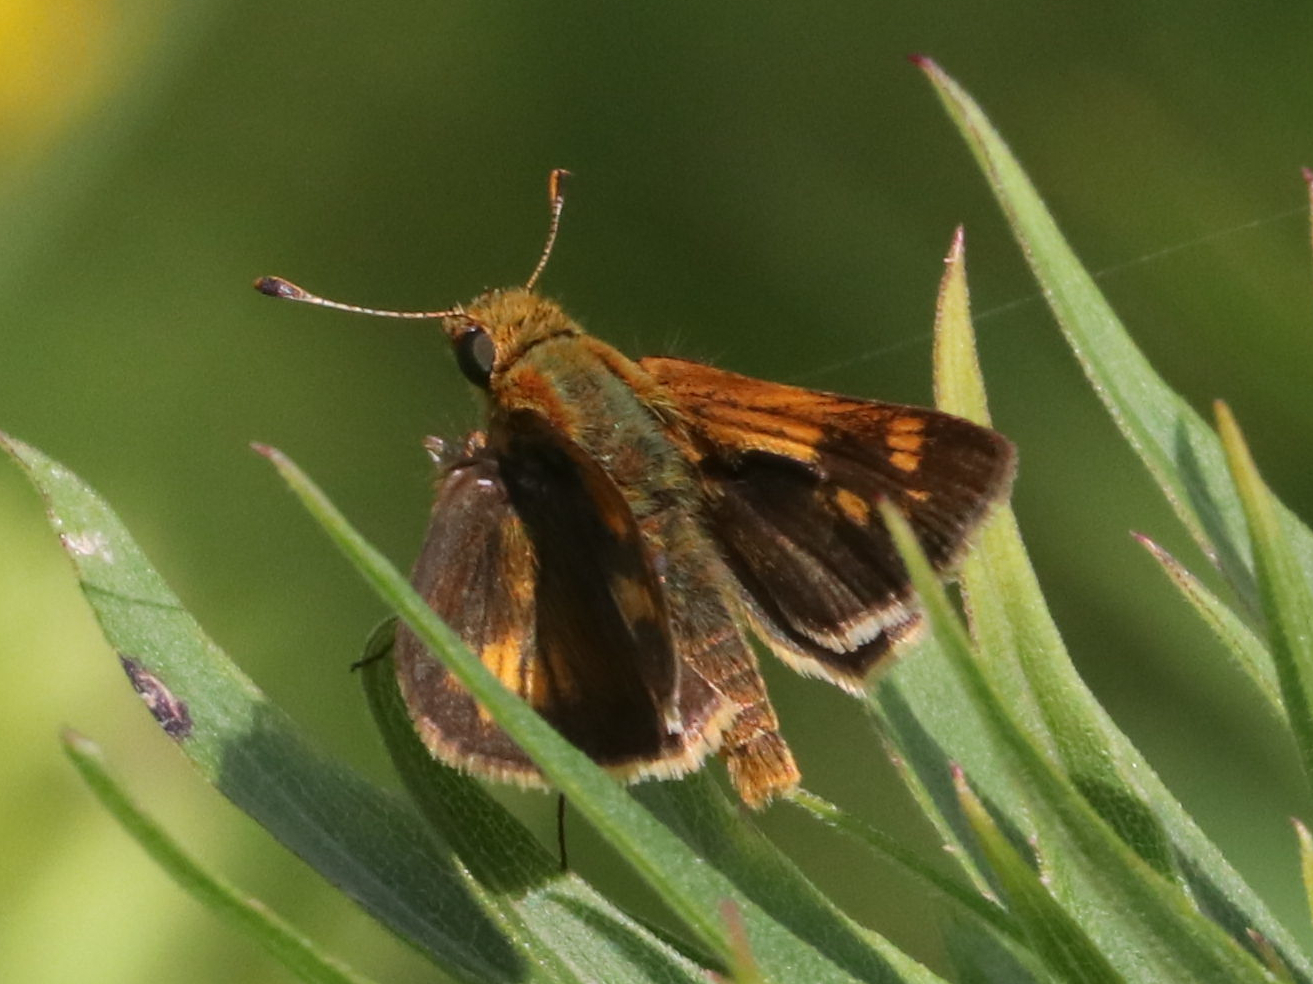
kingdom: Animalia
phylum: Arthropoda
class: Insecta
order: Lepidoptera
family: Hesperiidae
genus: Polites
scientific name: Polites coras
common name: Peck's skipper
